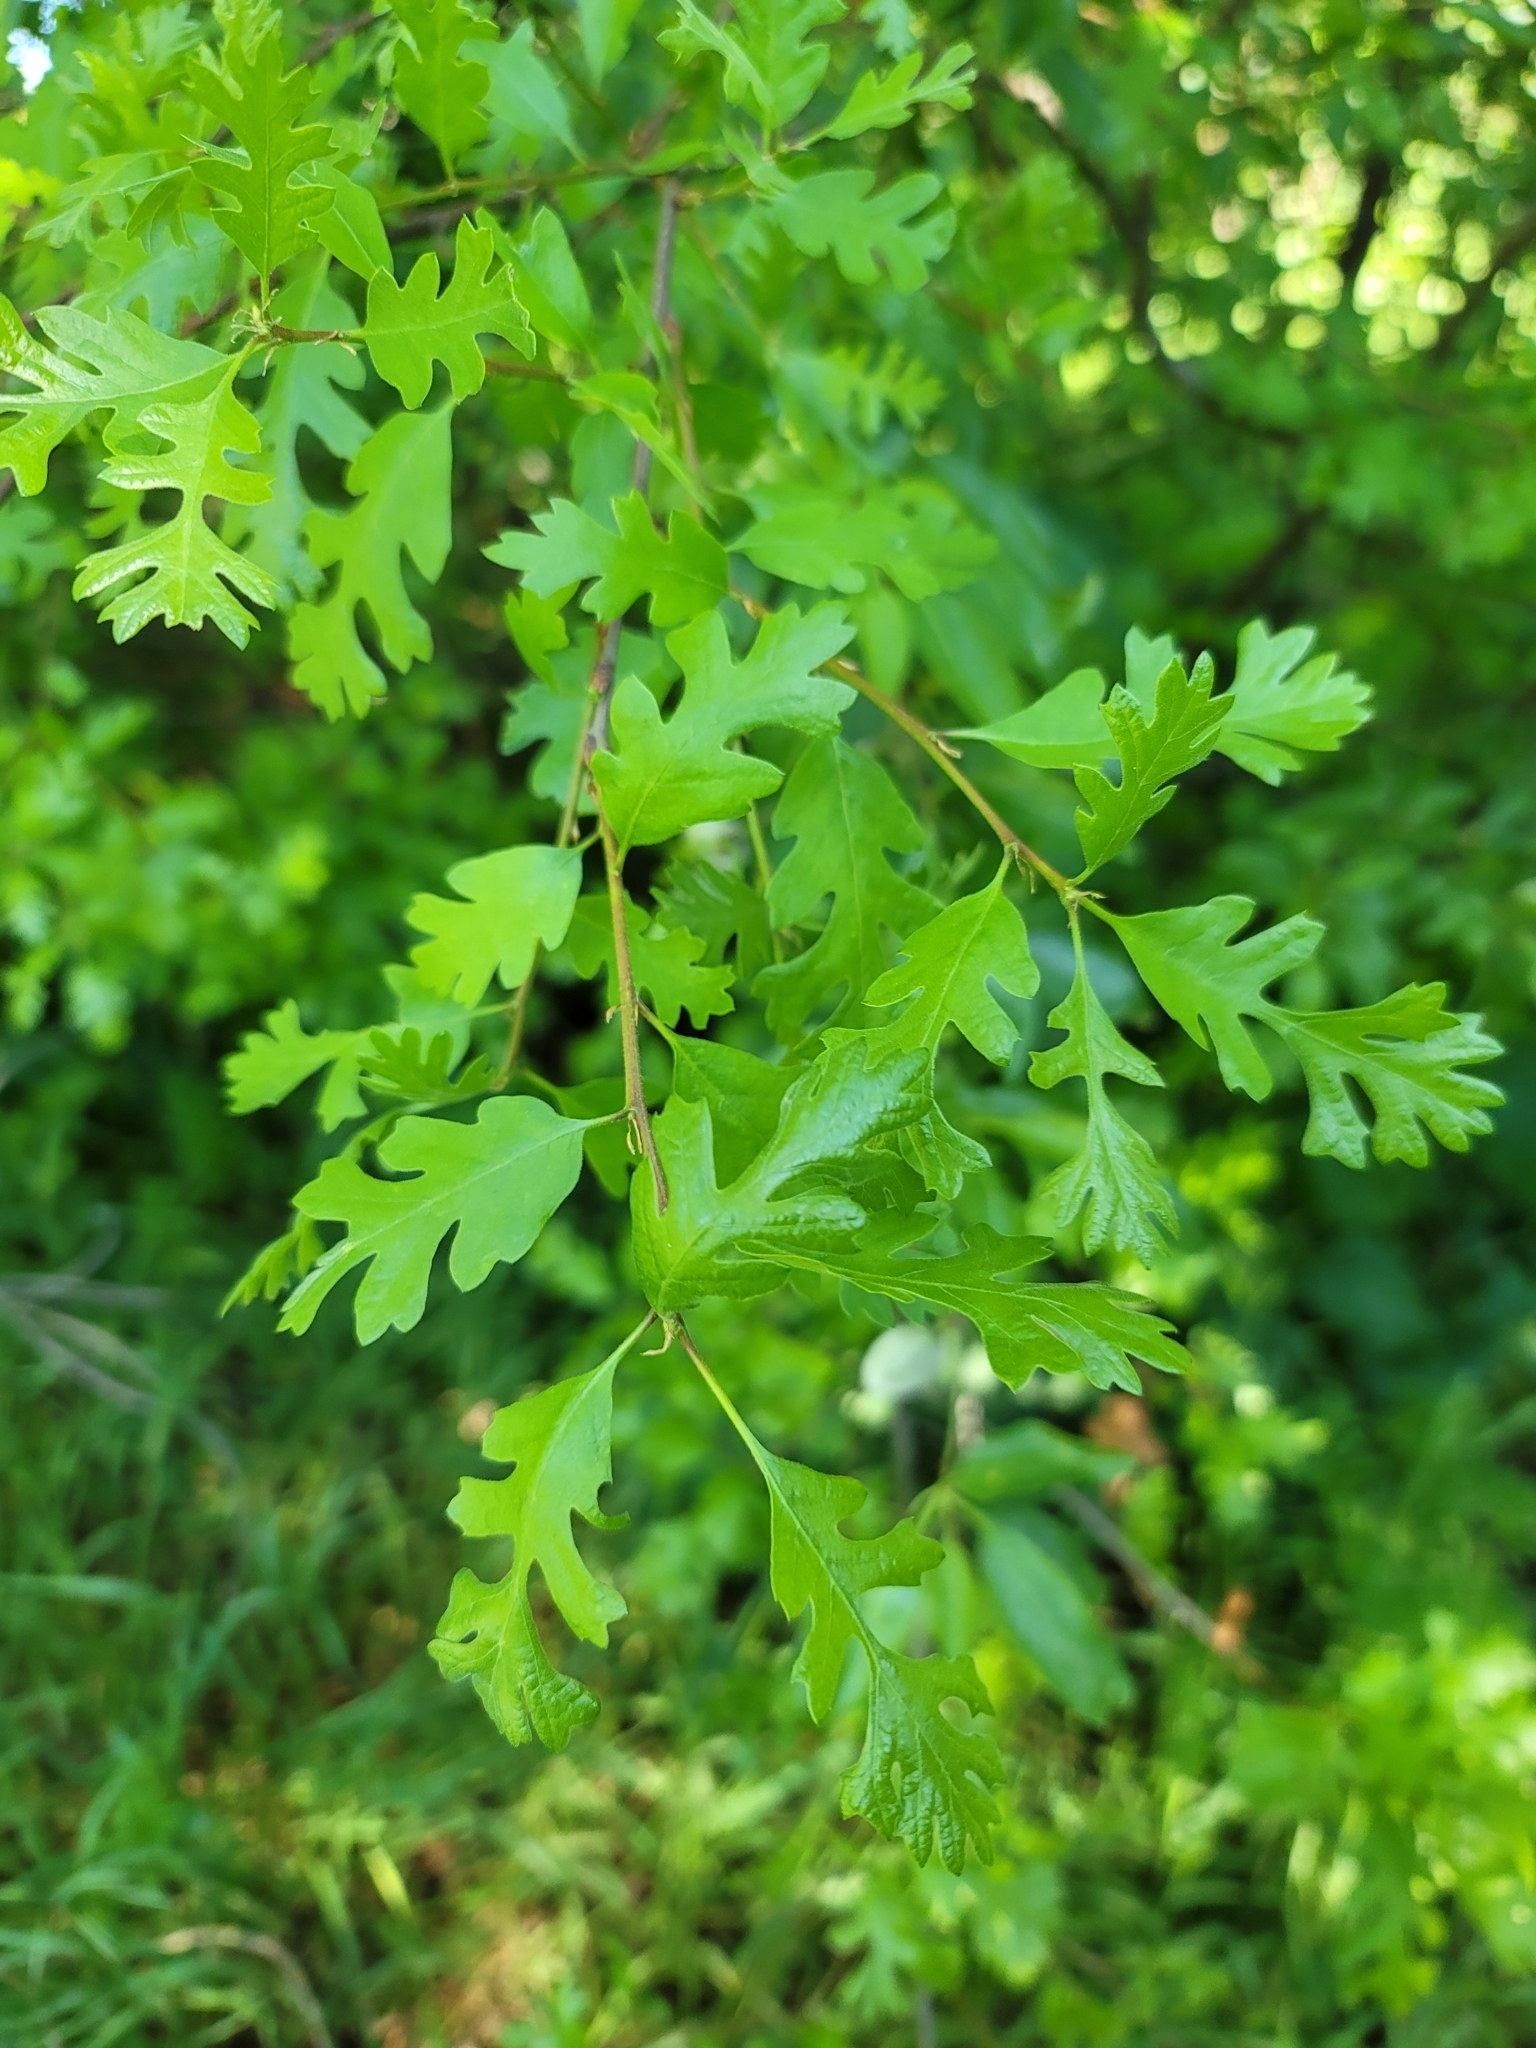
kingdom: Plantae
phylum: Tracheophyta
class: Magnoliopsida
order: Fagales
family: Fagaceae
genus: Quercus
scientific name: Quercus lobata
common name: Valley oak
